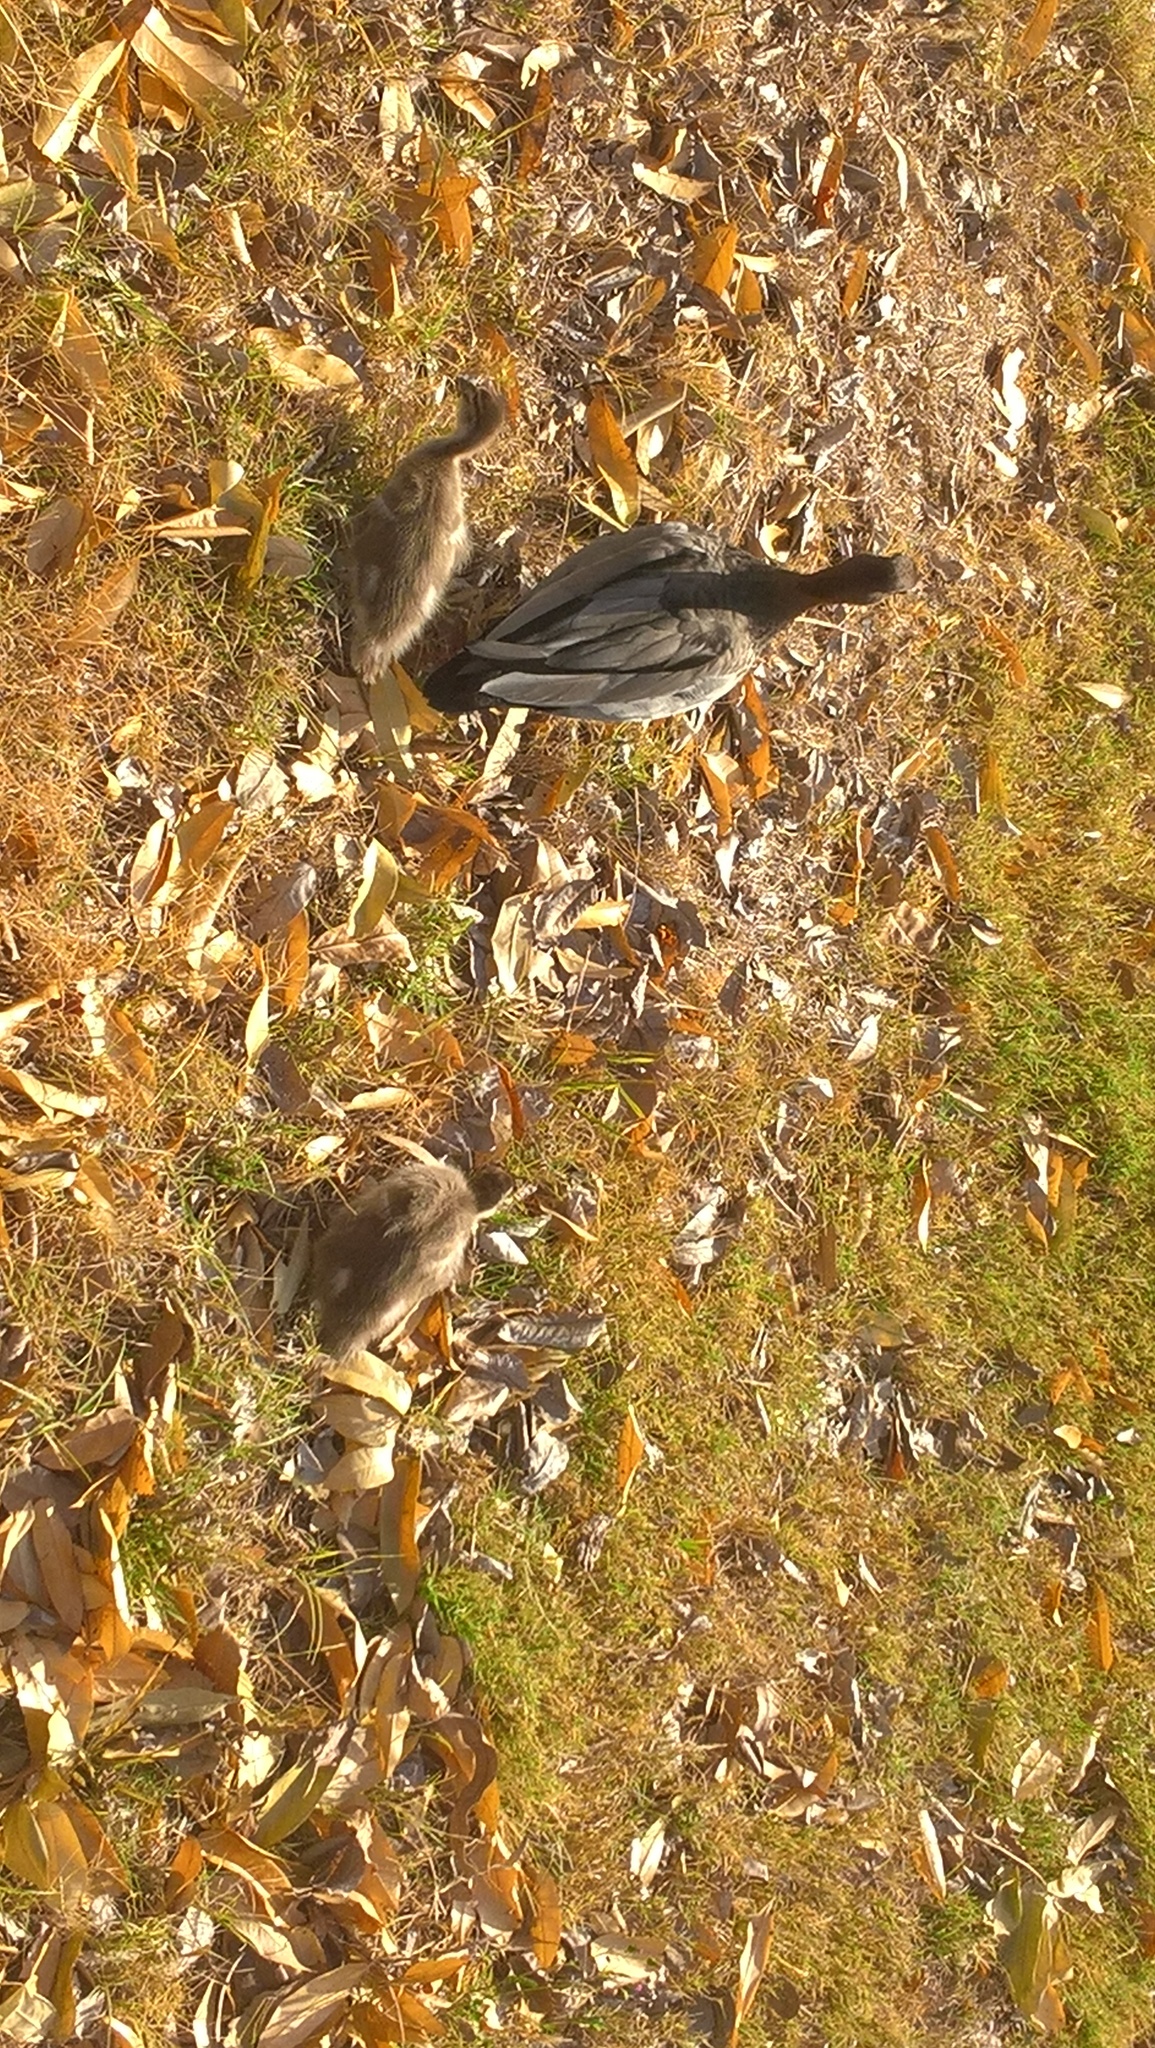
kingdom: Animalia
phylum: Chordata
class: Aves
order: Anseriformes
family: Anatidae
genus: Chenonetta
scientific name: Chenonetta jubata
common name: Maned duck
